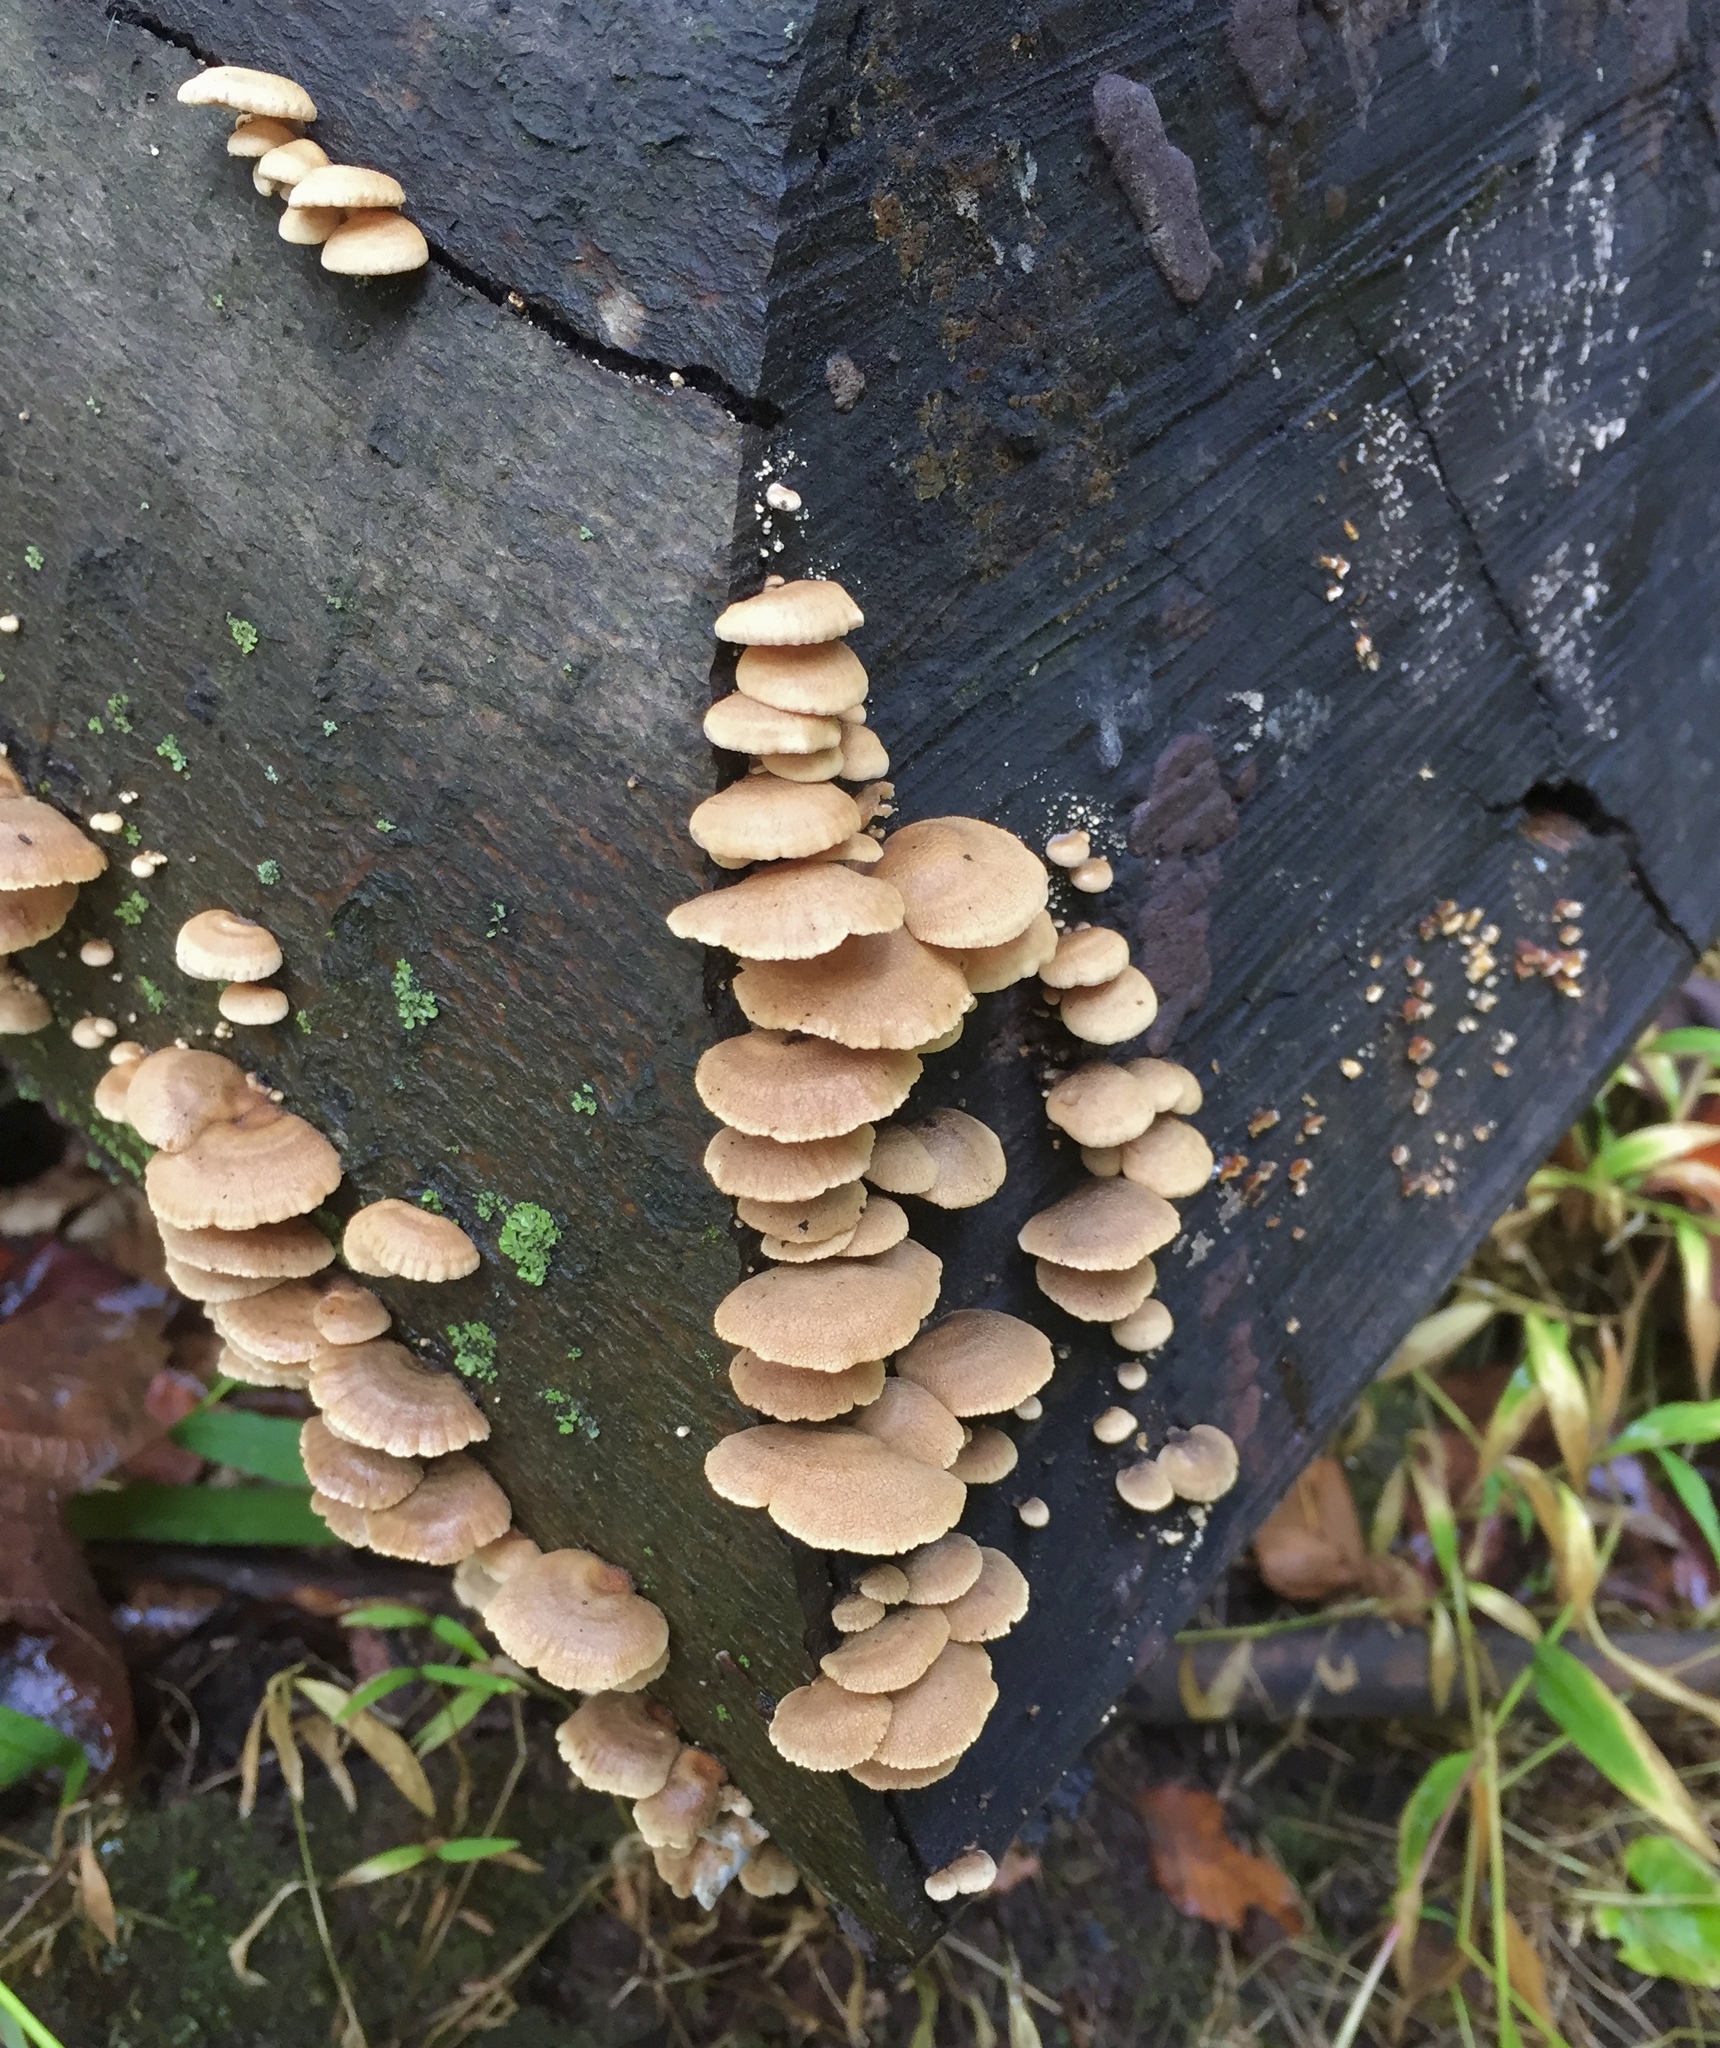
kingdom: Fungi
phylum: Basidiomycota
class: Agaricomycetes
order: Agaricales
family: Mycenaceae
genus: Panellus
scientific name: Panellus stipticus
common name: Bitter oysterling
